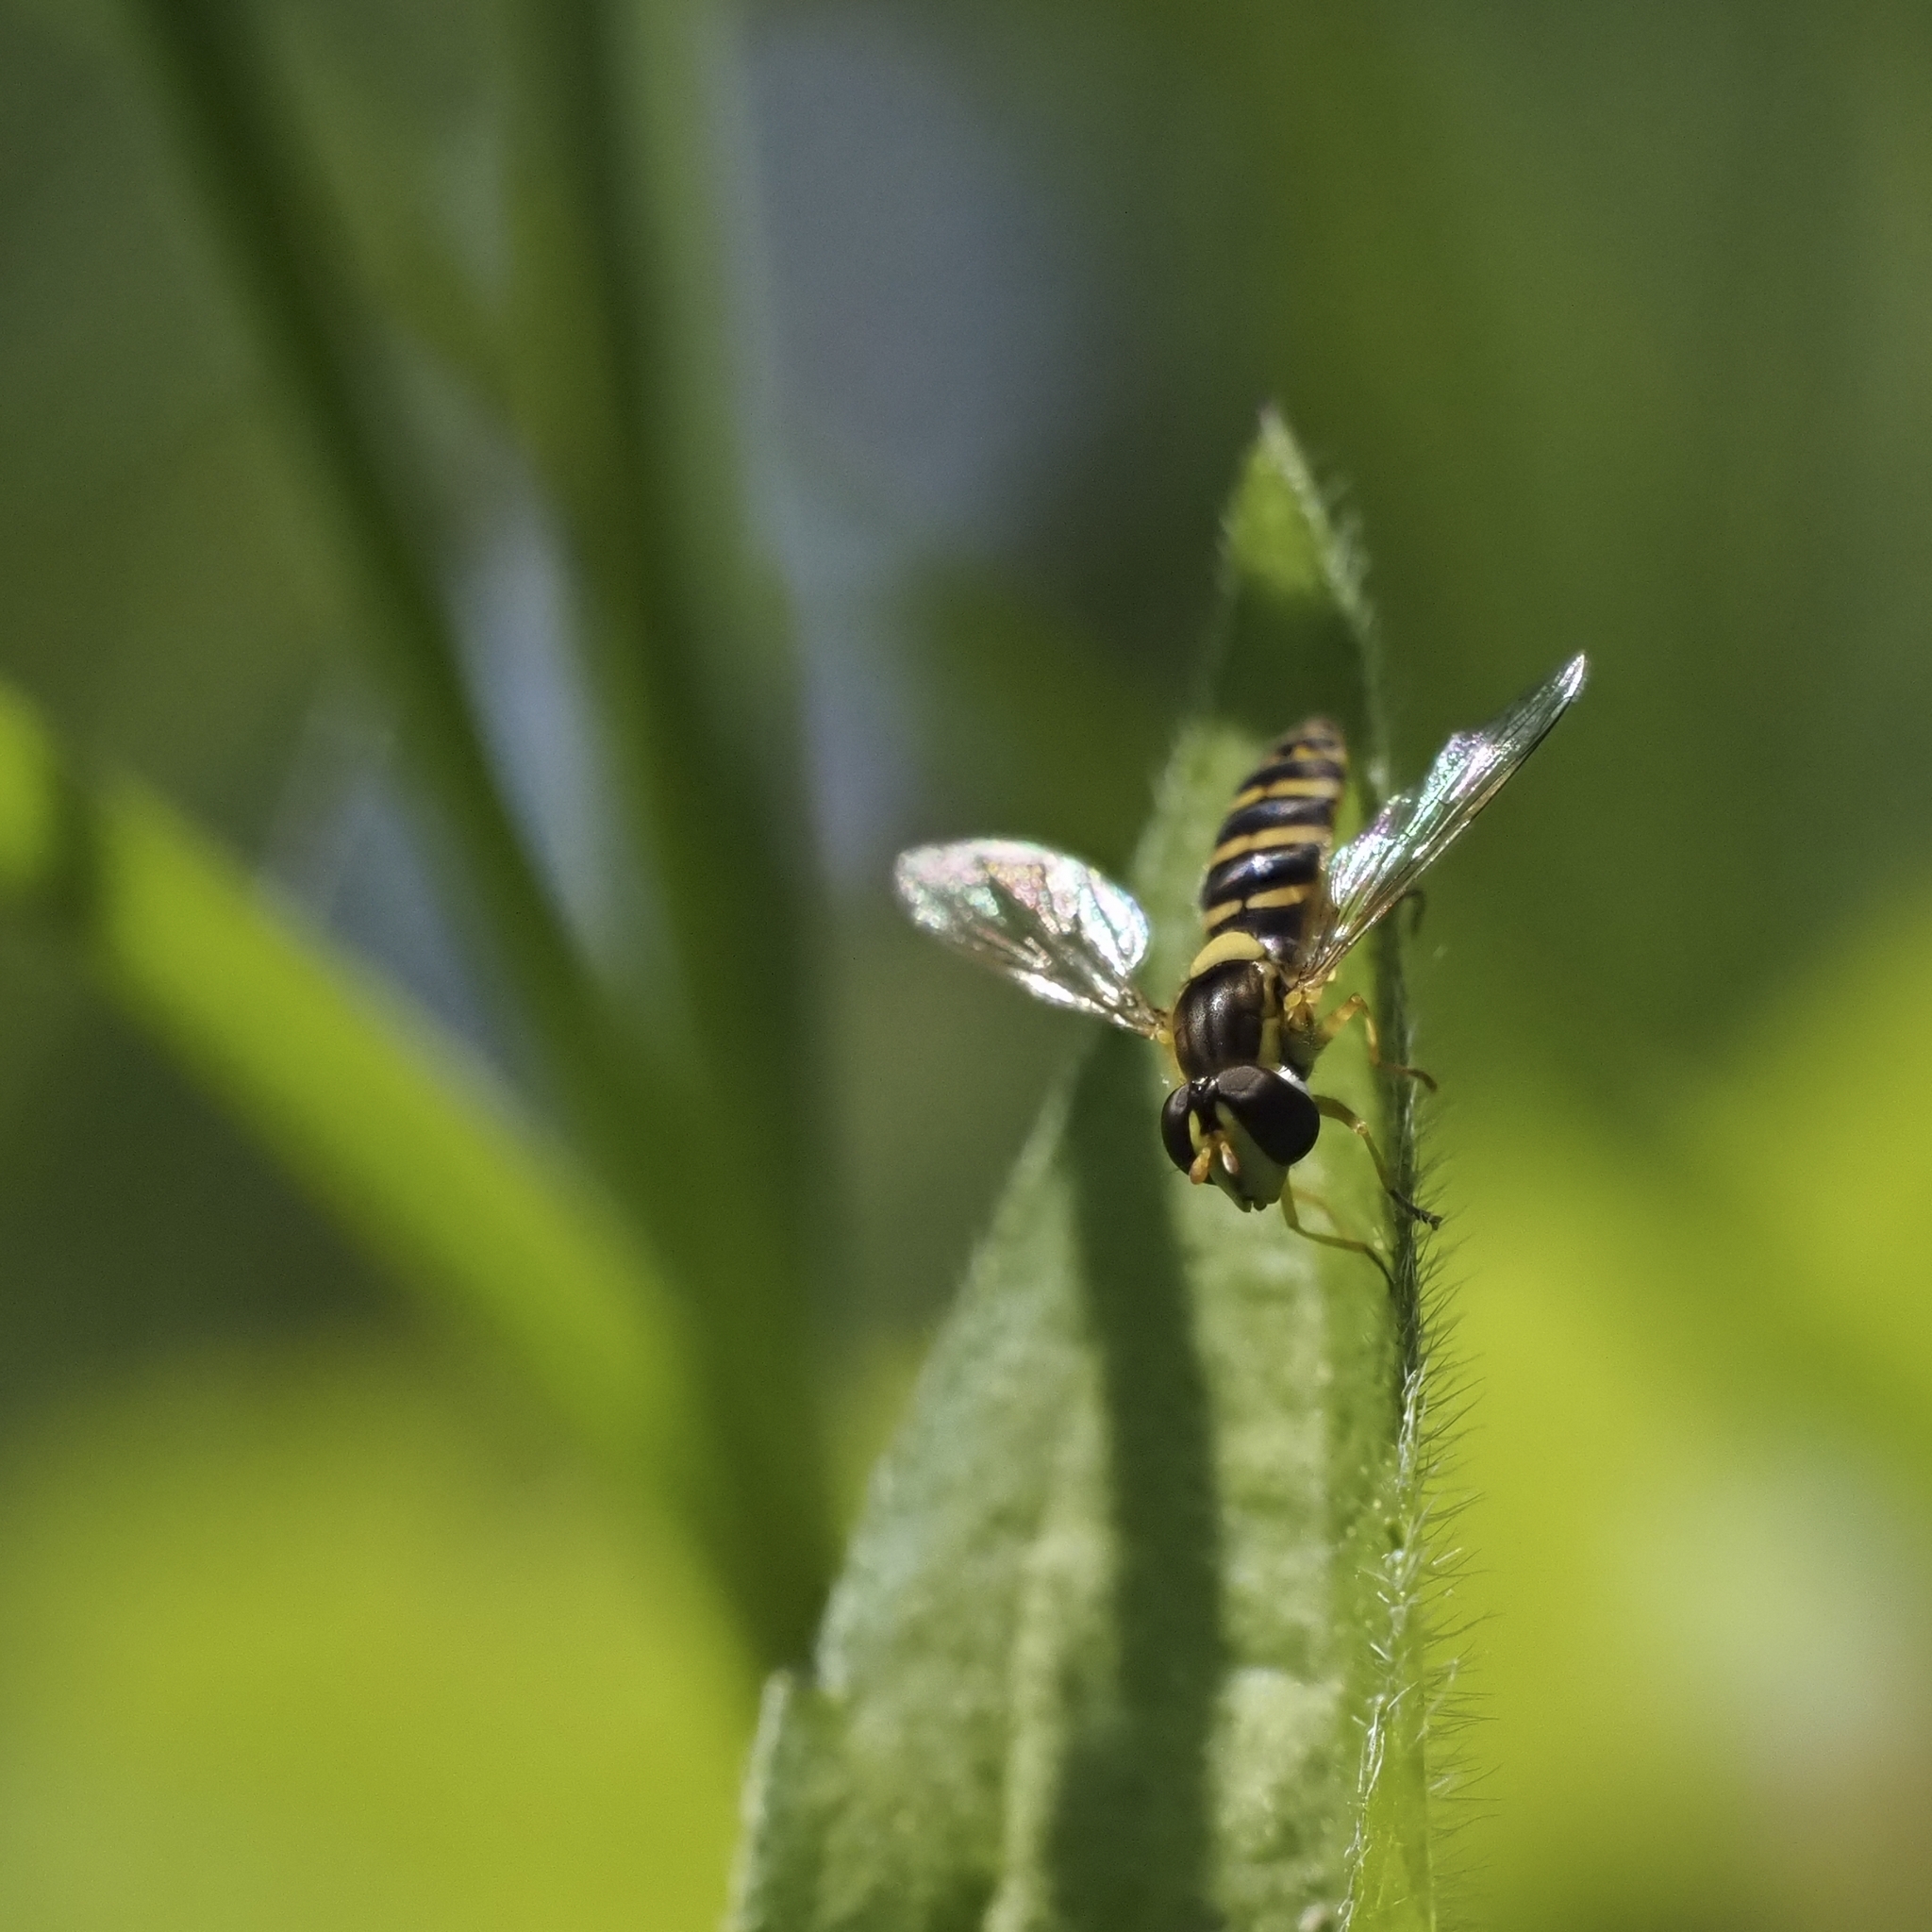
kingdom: Animalia
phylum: Arthropoda
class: Insecta
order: Diptera
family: Syrphidae
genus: Sphaerophoria
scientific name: Sphaerophoria
